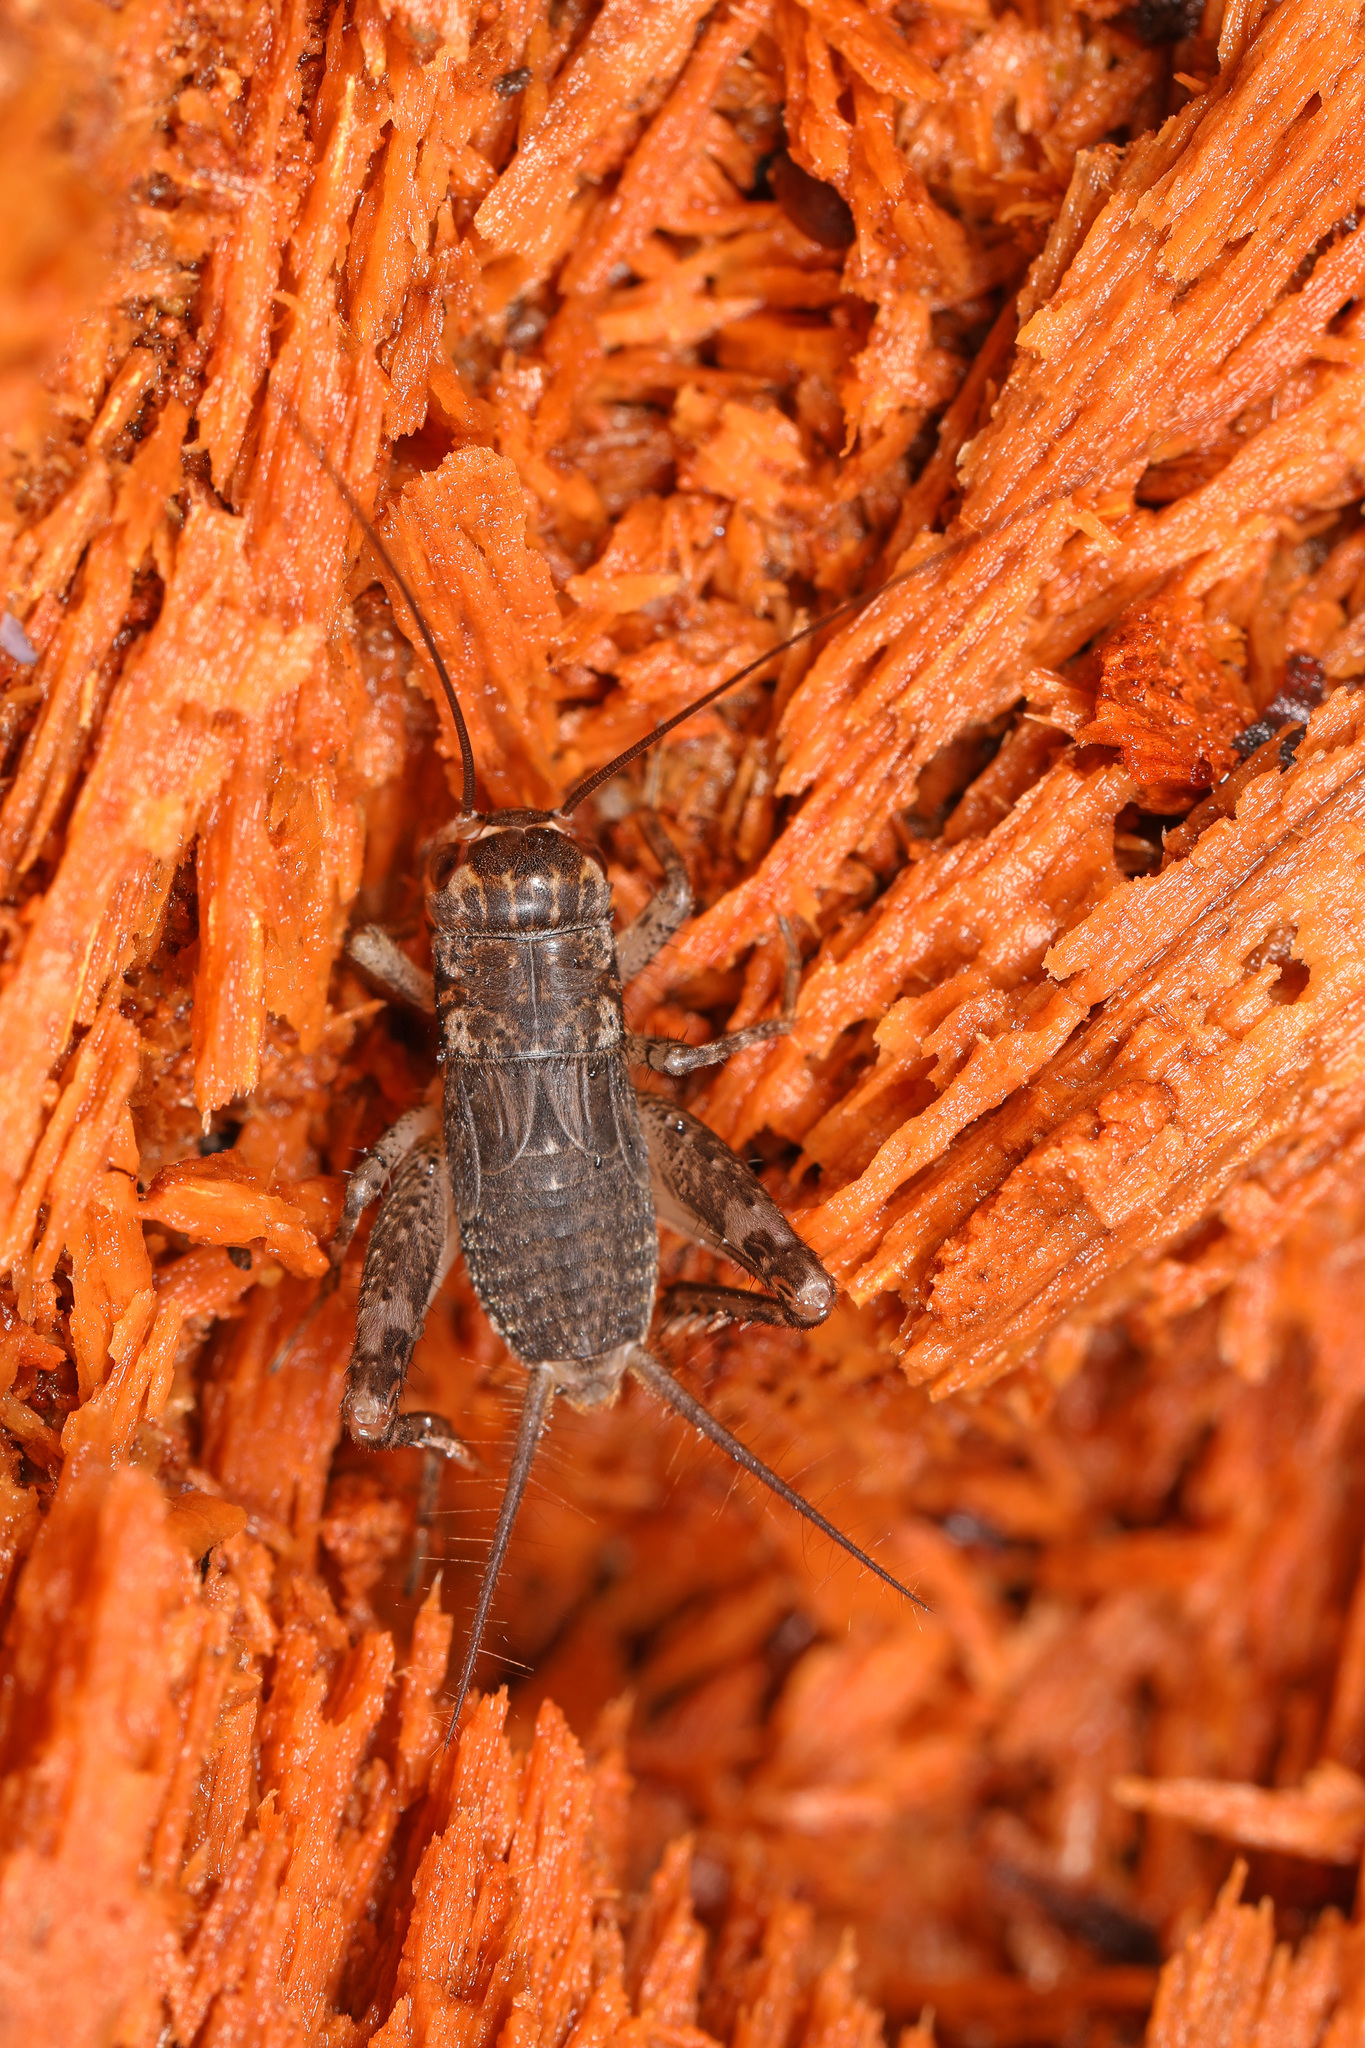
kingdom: Animalia
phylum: Arthropoda
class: Insecta
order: Orthoptera
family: Gryllidae
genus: Velarifictorus
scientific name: Velarifictorus micado
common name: Japanese burrowing cricket
